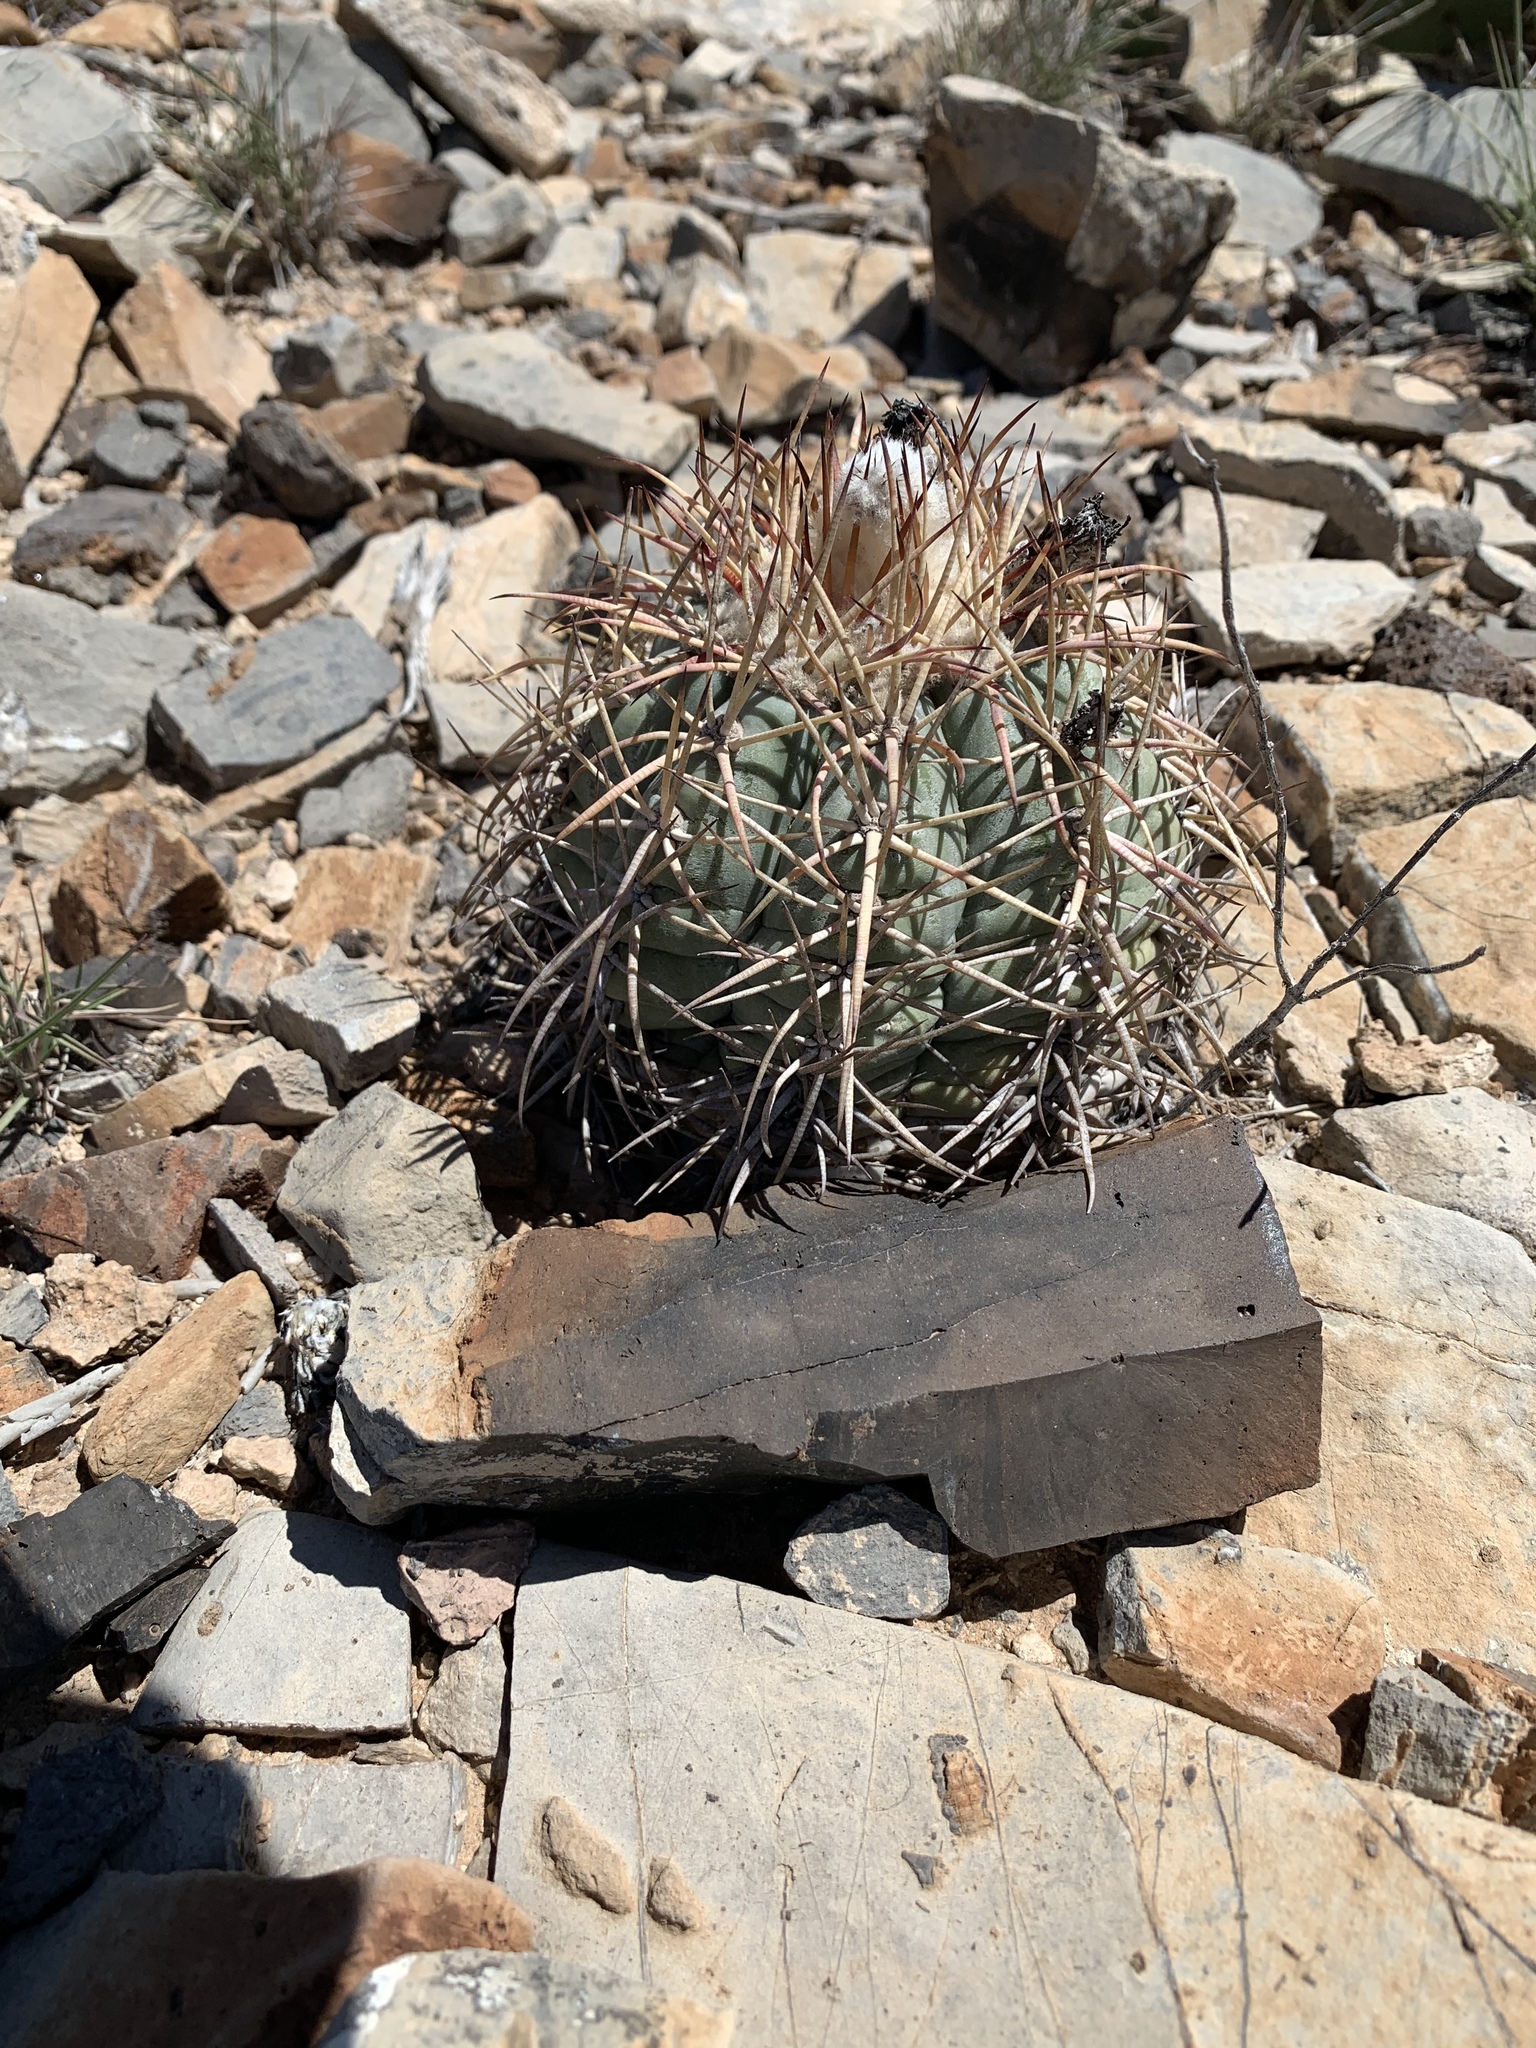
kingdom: Plantae
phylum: Tracheophyta
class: Magnoliopsida
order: Caryophyllales
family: Cactaceae
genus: Echinocactus
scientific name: Echinocactus horizonthalonius
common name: Devilshead
